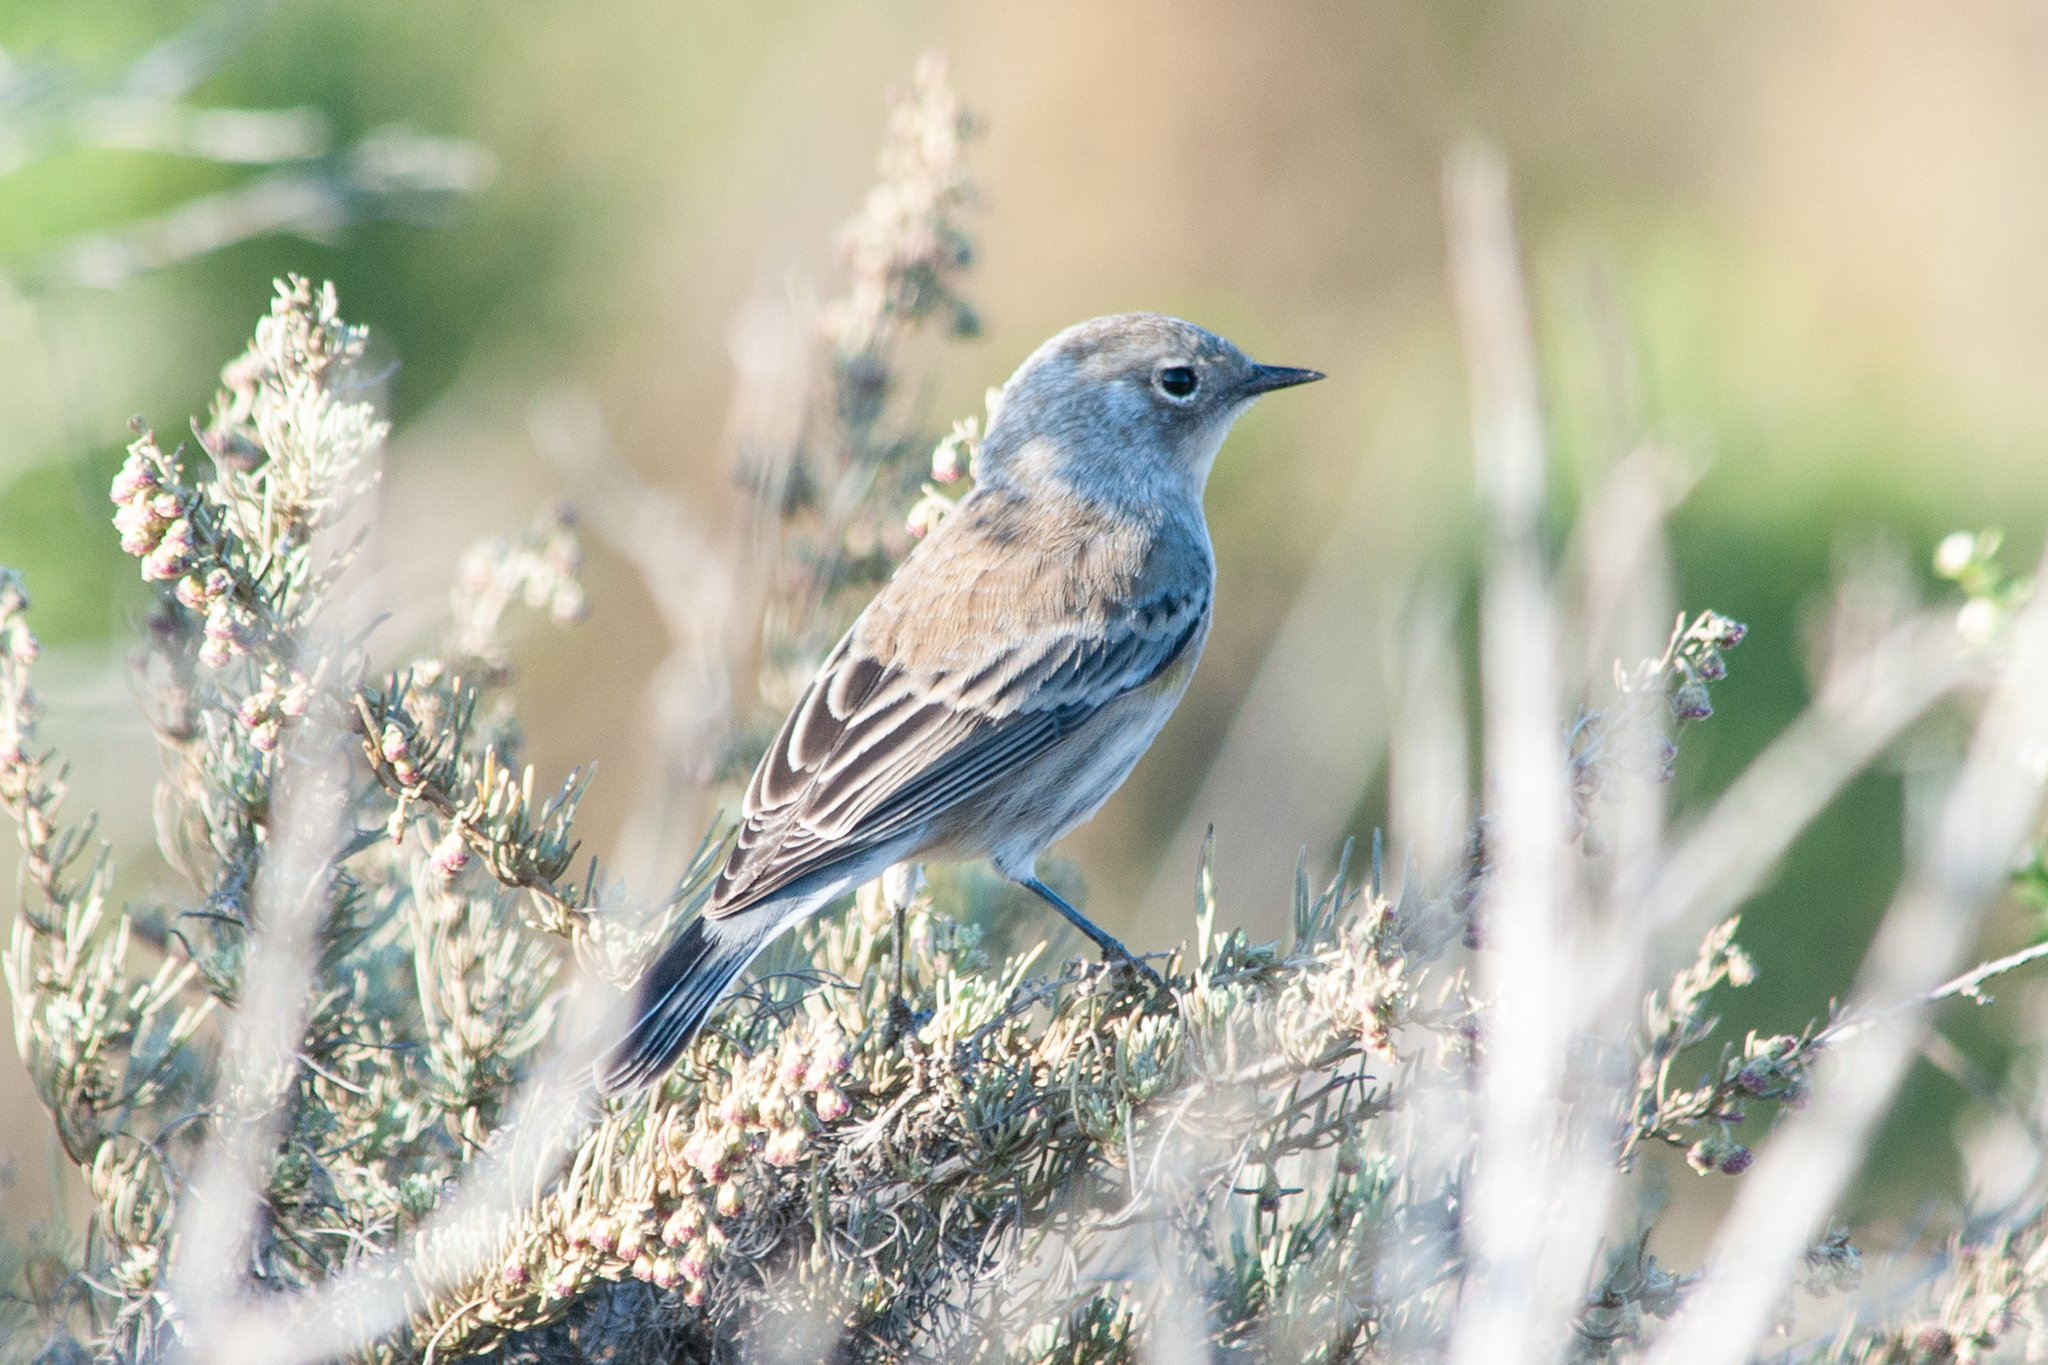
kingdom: Animalia
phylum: Chordata
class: Aves
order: Passeriformes
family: Parulidae
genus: Setophaga
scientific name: Setophaga coronata
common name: Myrtle warbler
